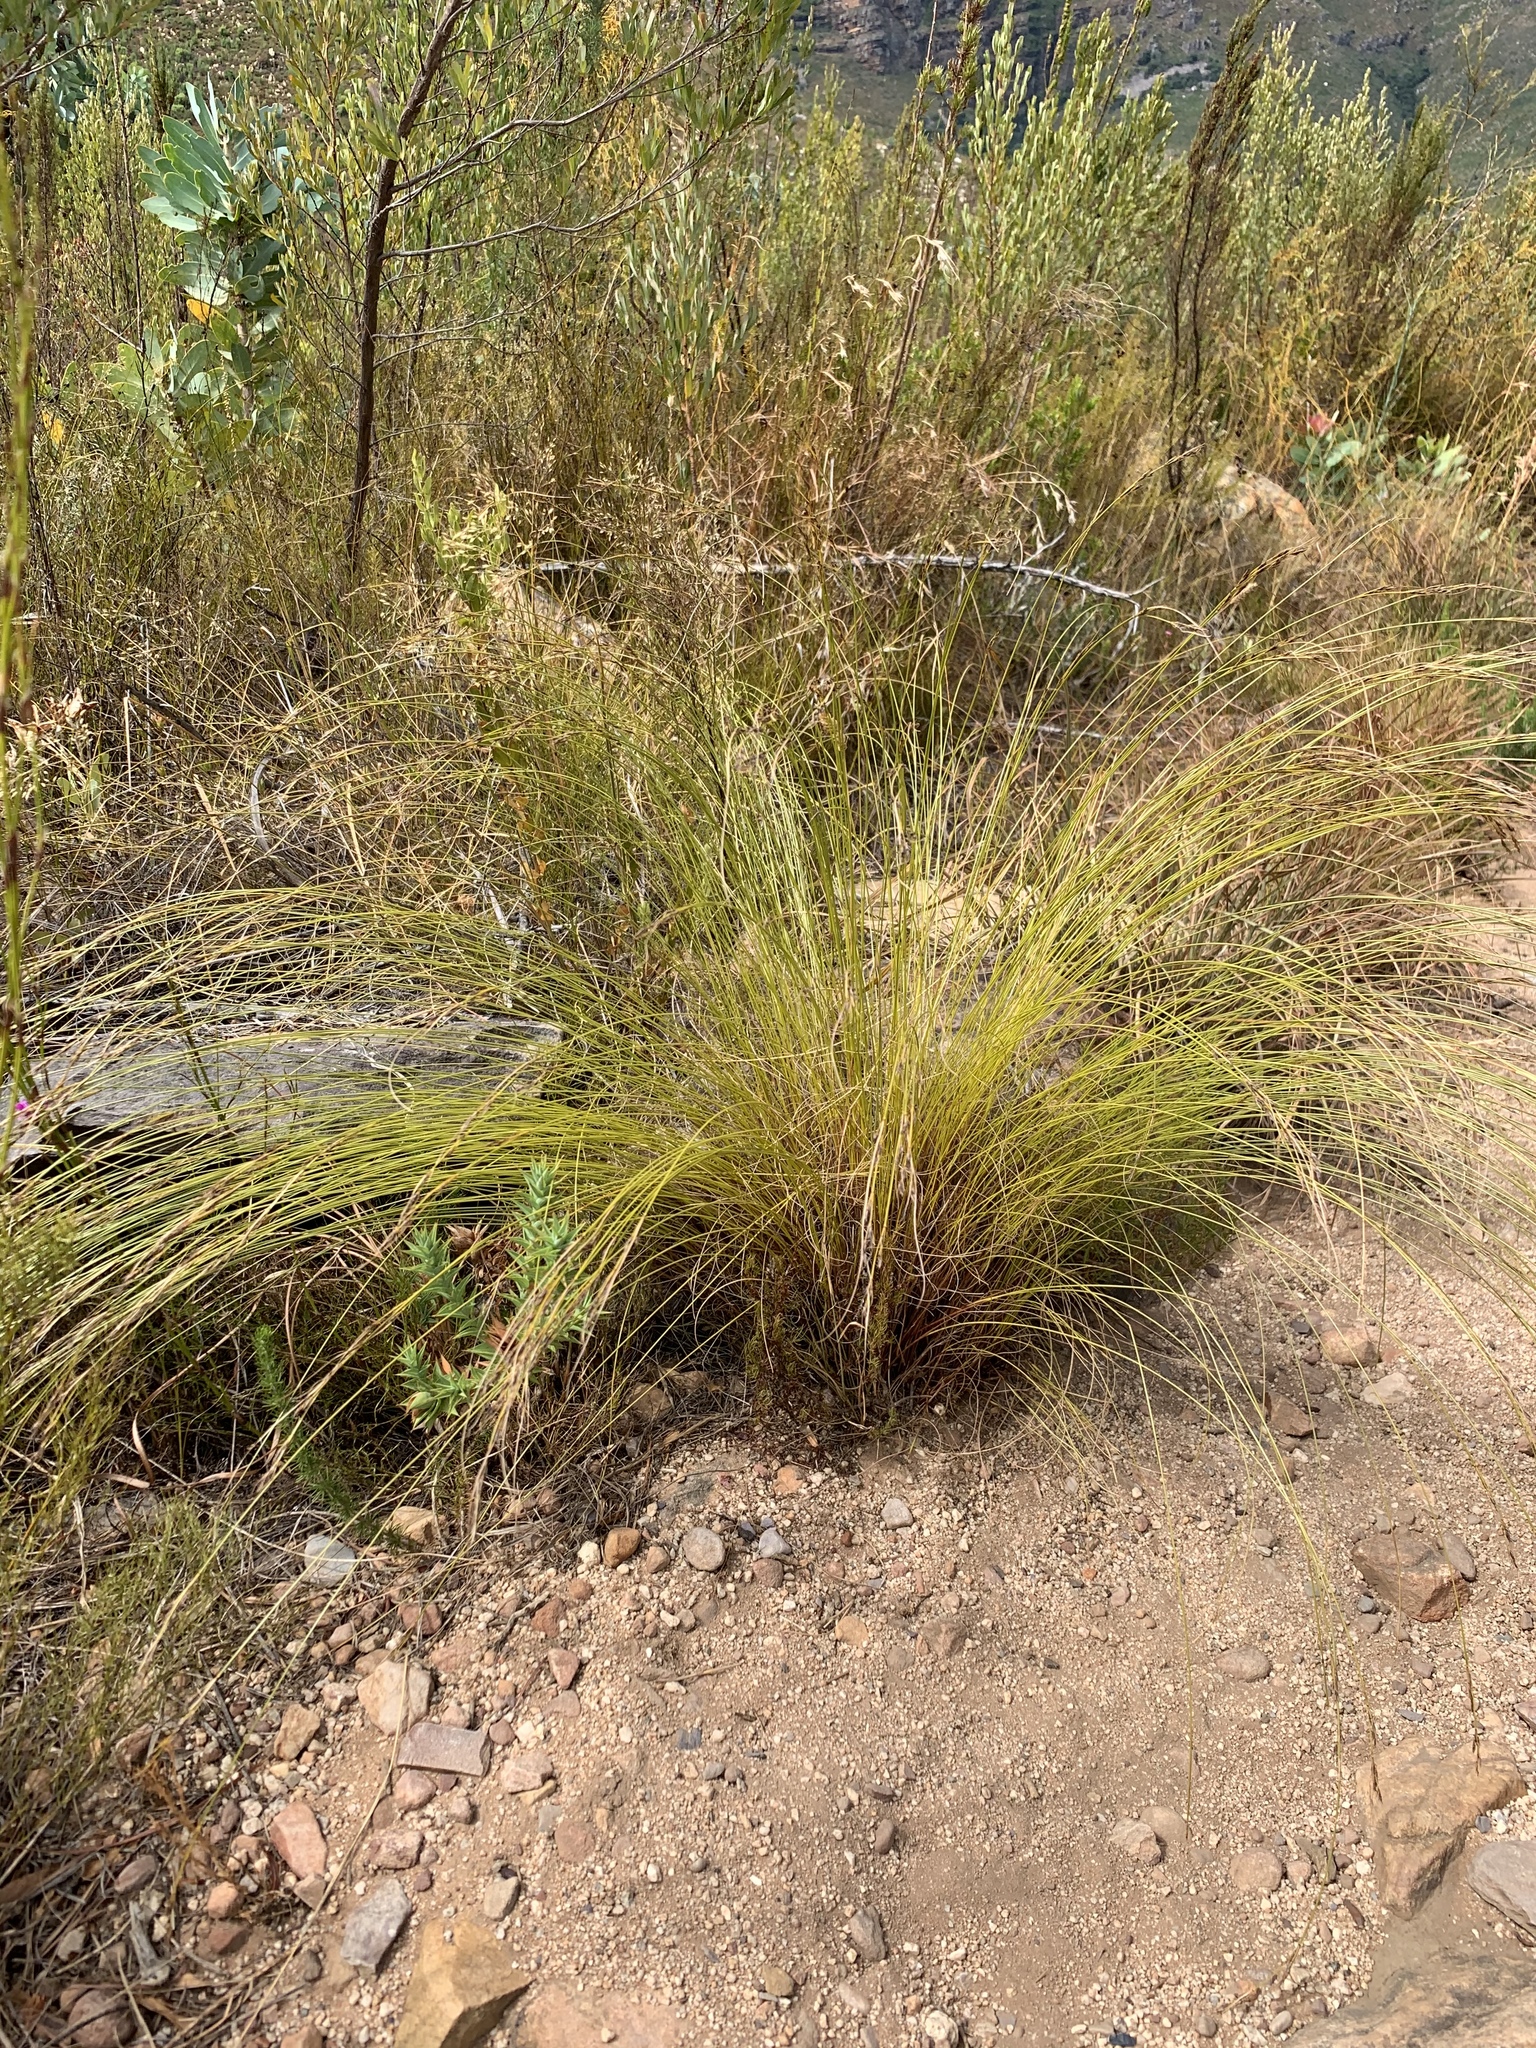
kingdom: Plantae
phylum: Tracheophyta
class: Liliopsida
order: Poales
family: Cyperaceae
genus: Schoenus
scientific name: Schoenus cuspidatus
